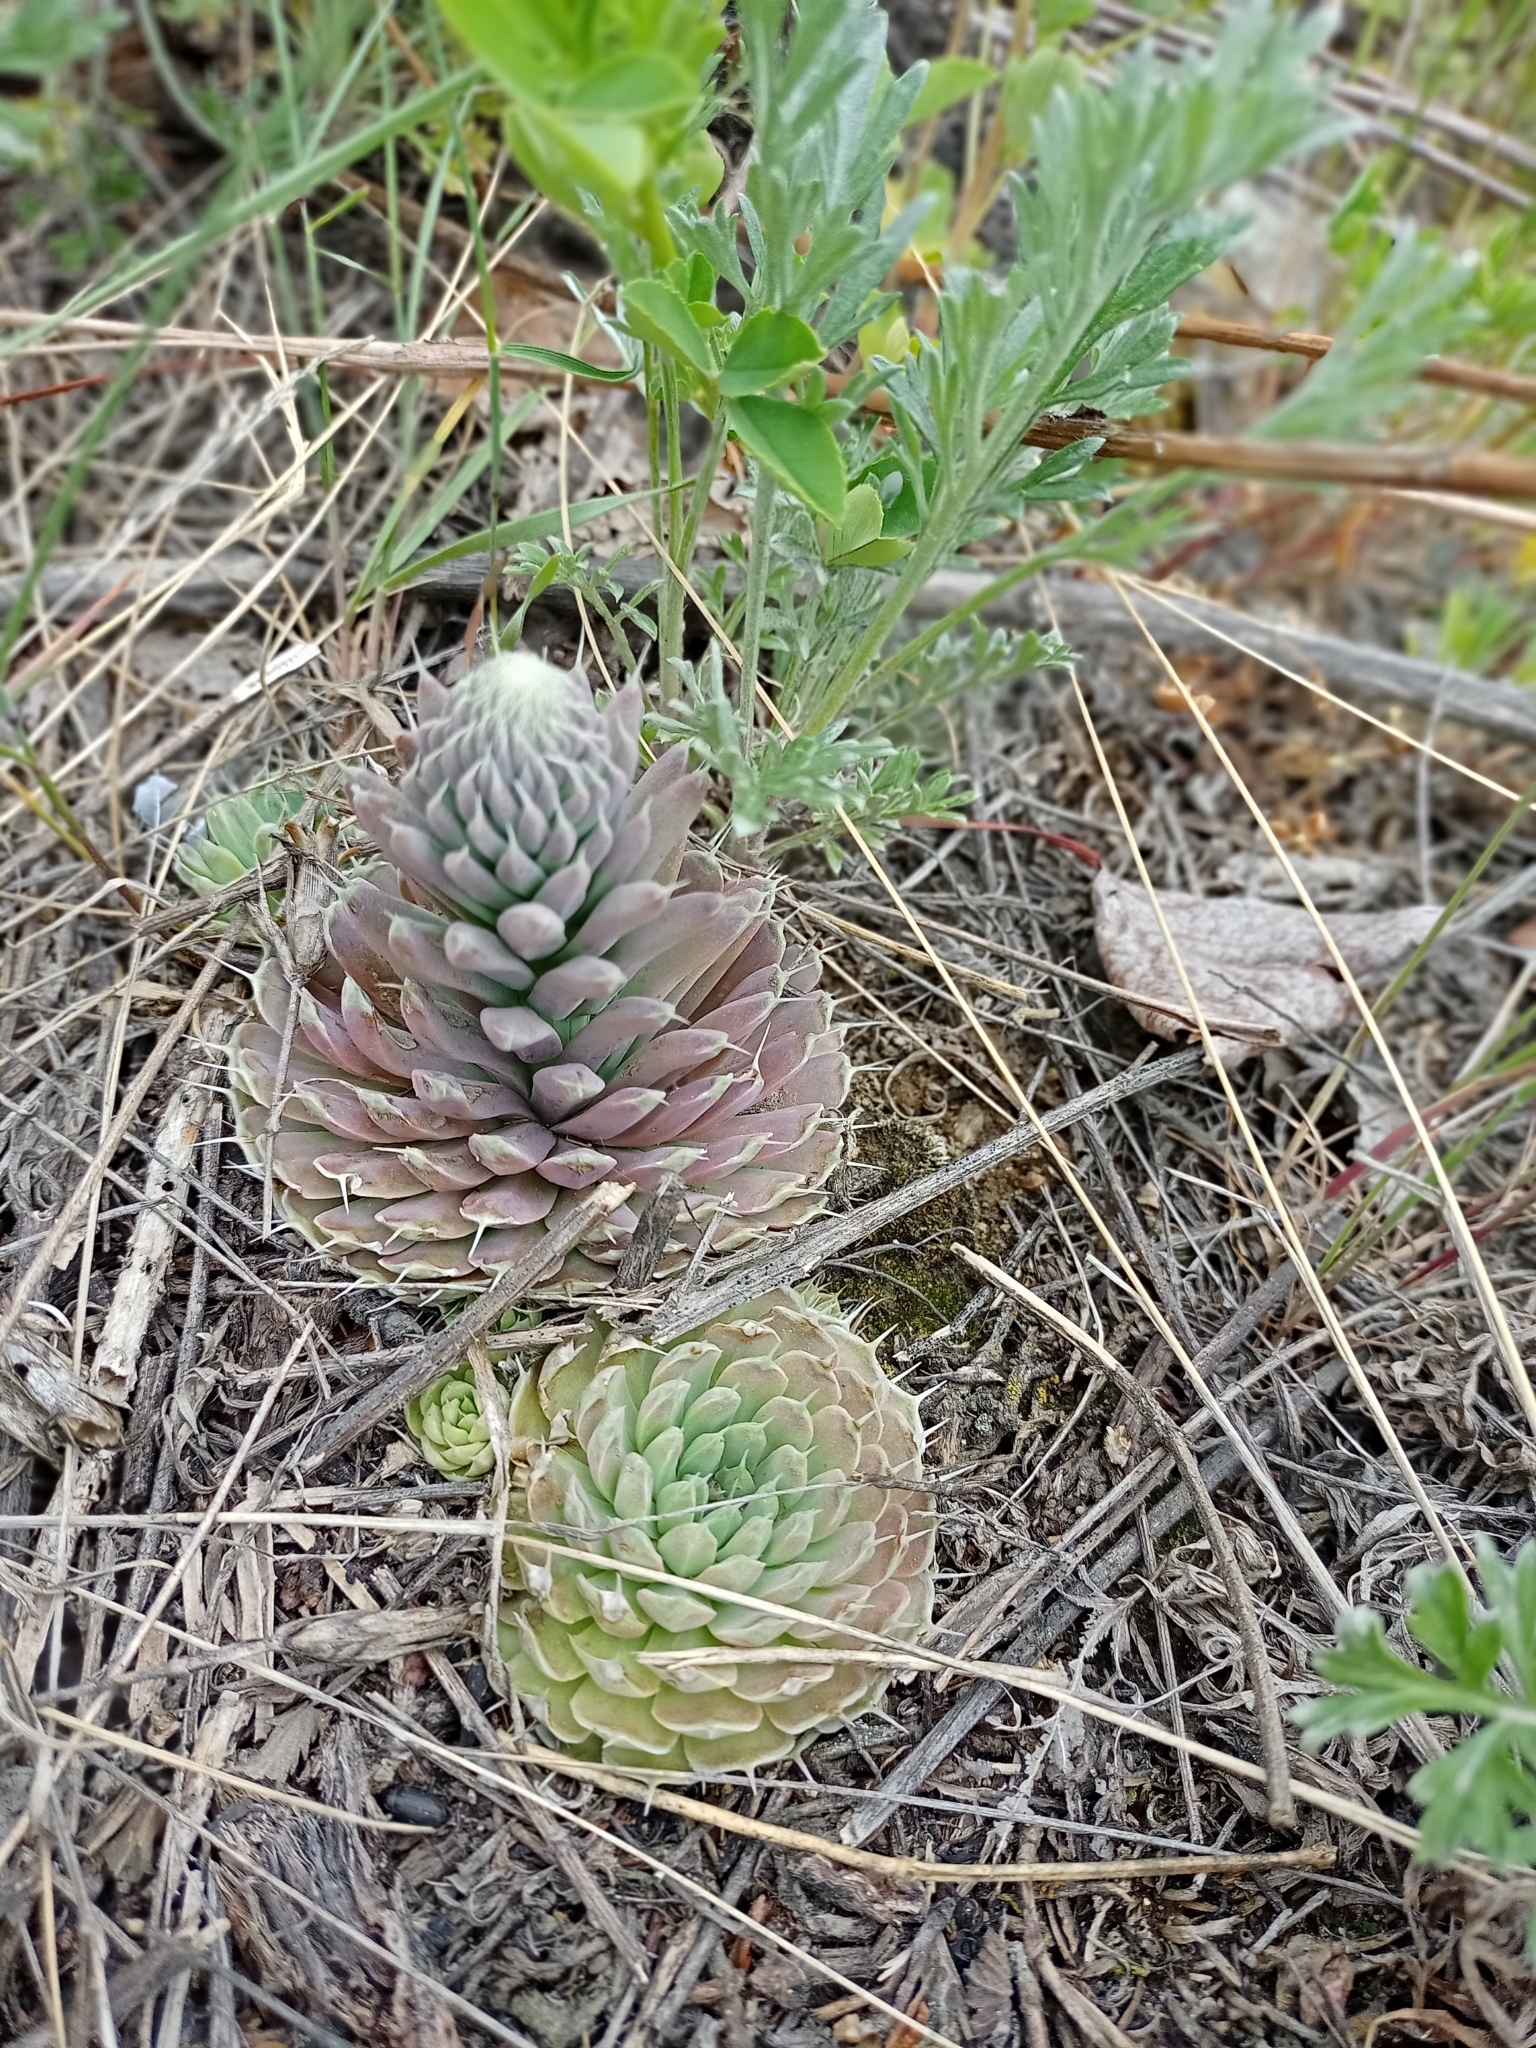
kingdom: Plantae
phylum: Tracheophyta
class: Magnoliopsida
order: Saxifragales
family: Crassulaceae
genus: Orostachys
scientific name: Orostachys spinosa
